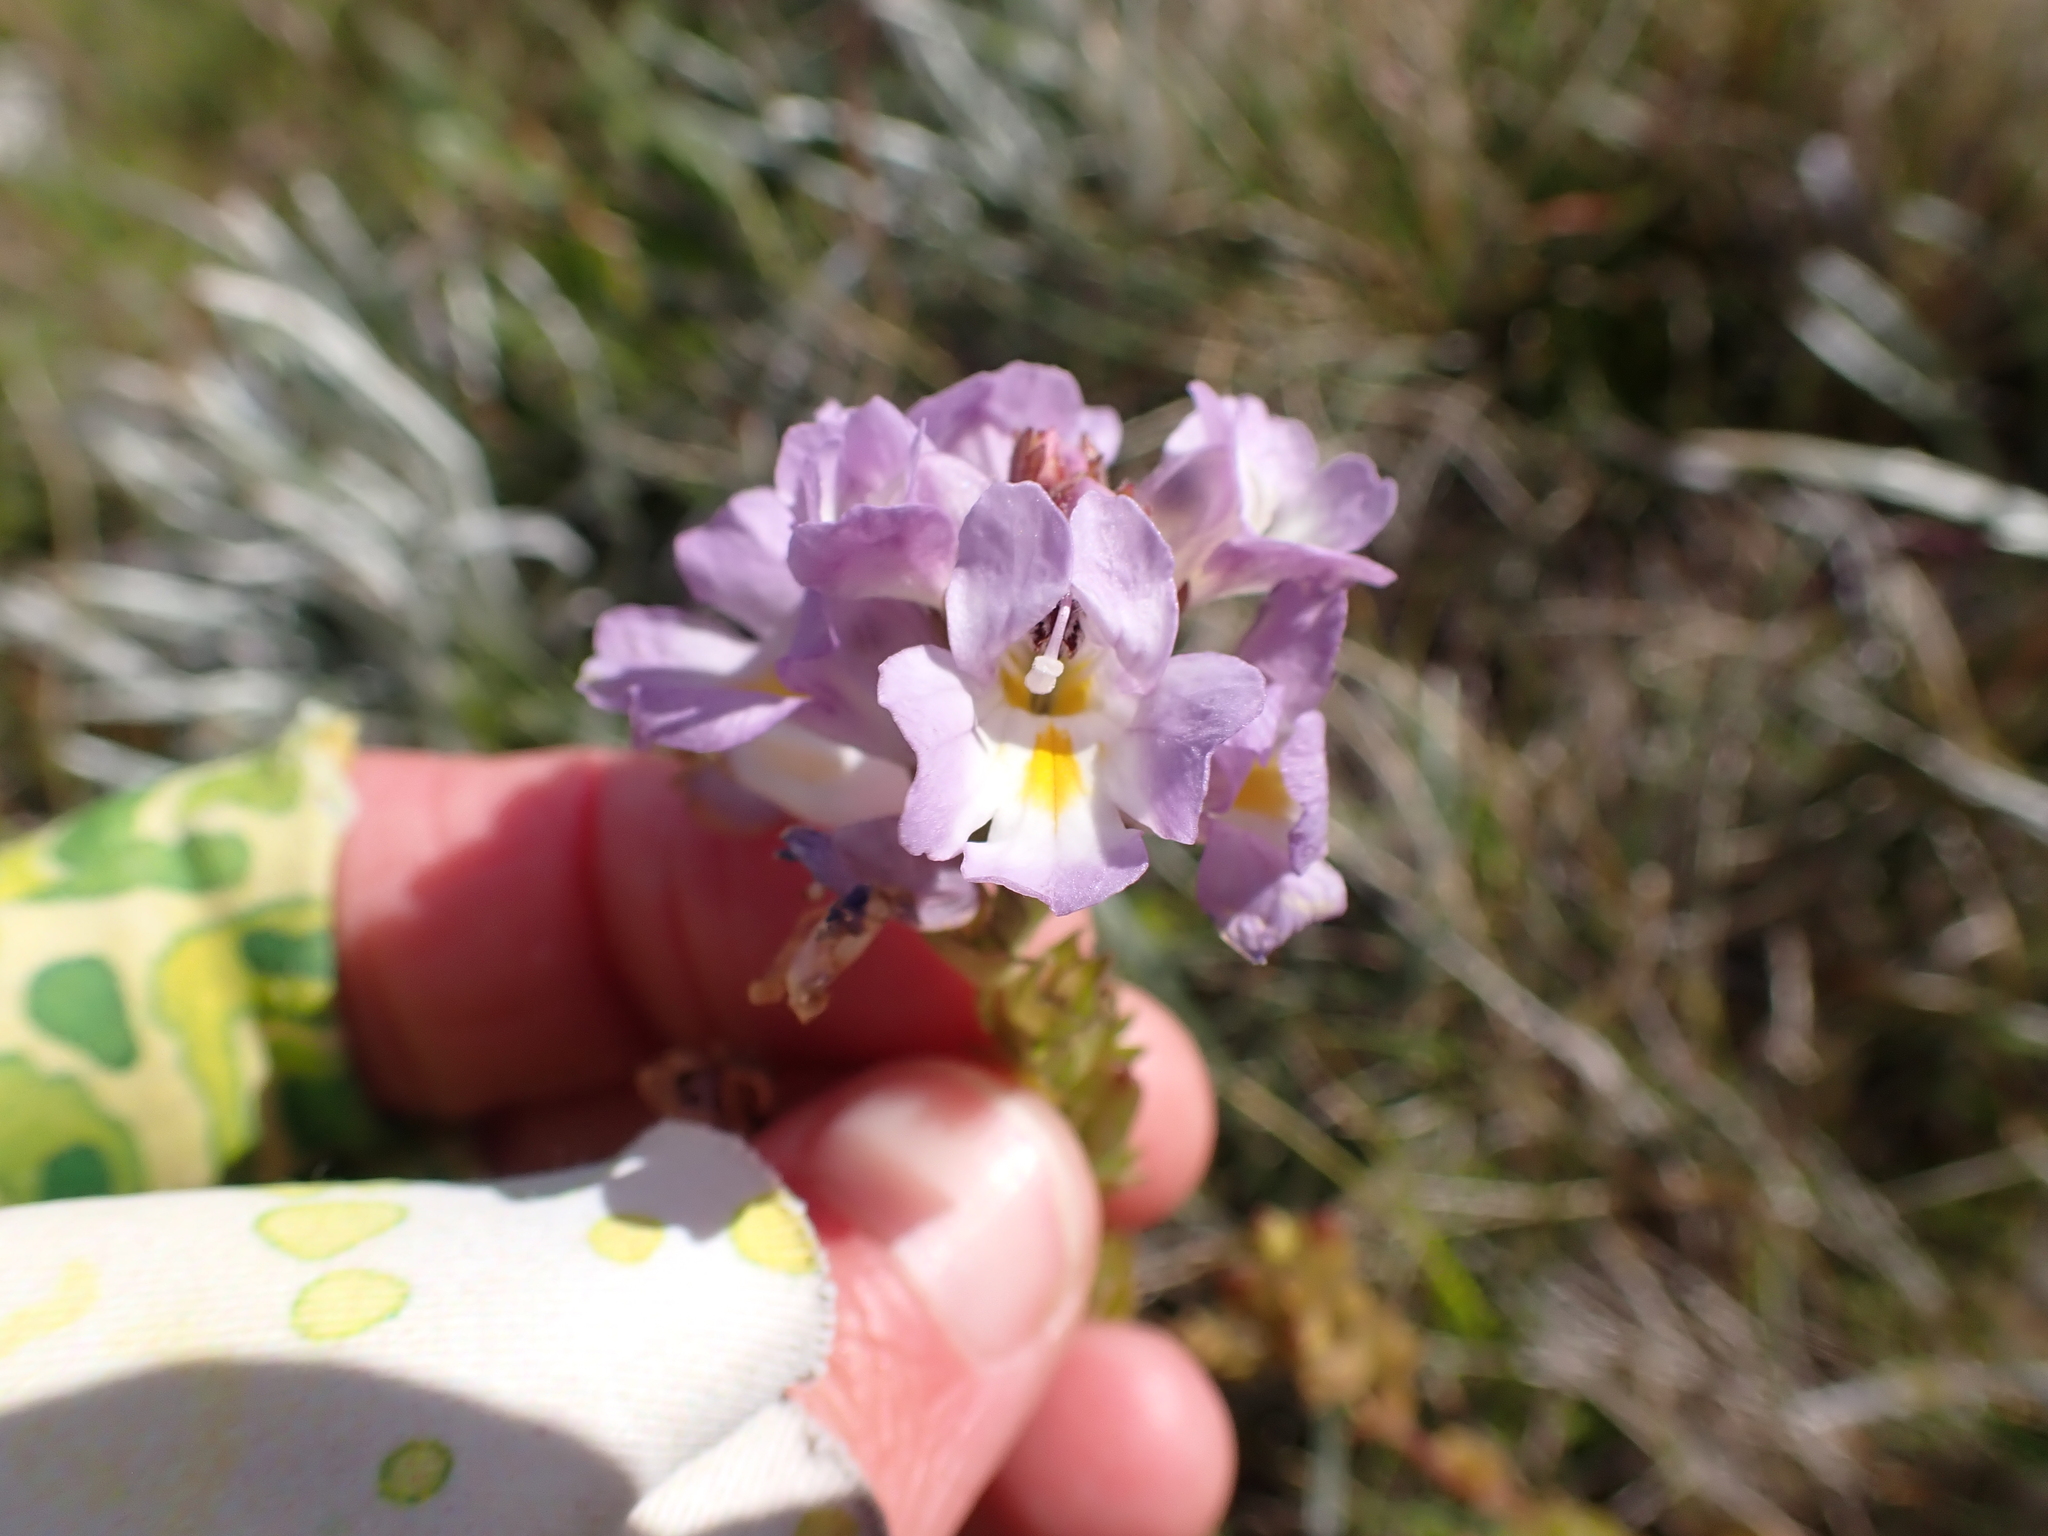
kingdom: Plantae
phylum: Tracheophyta
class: Magnoliopsida
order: Lamiales
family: Orobanchaceae
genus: Euphrasia
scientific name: Euphrasia collina
